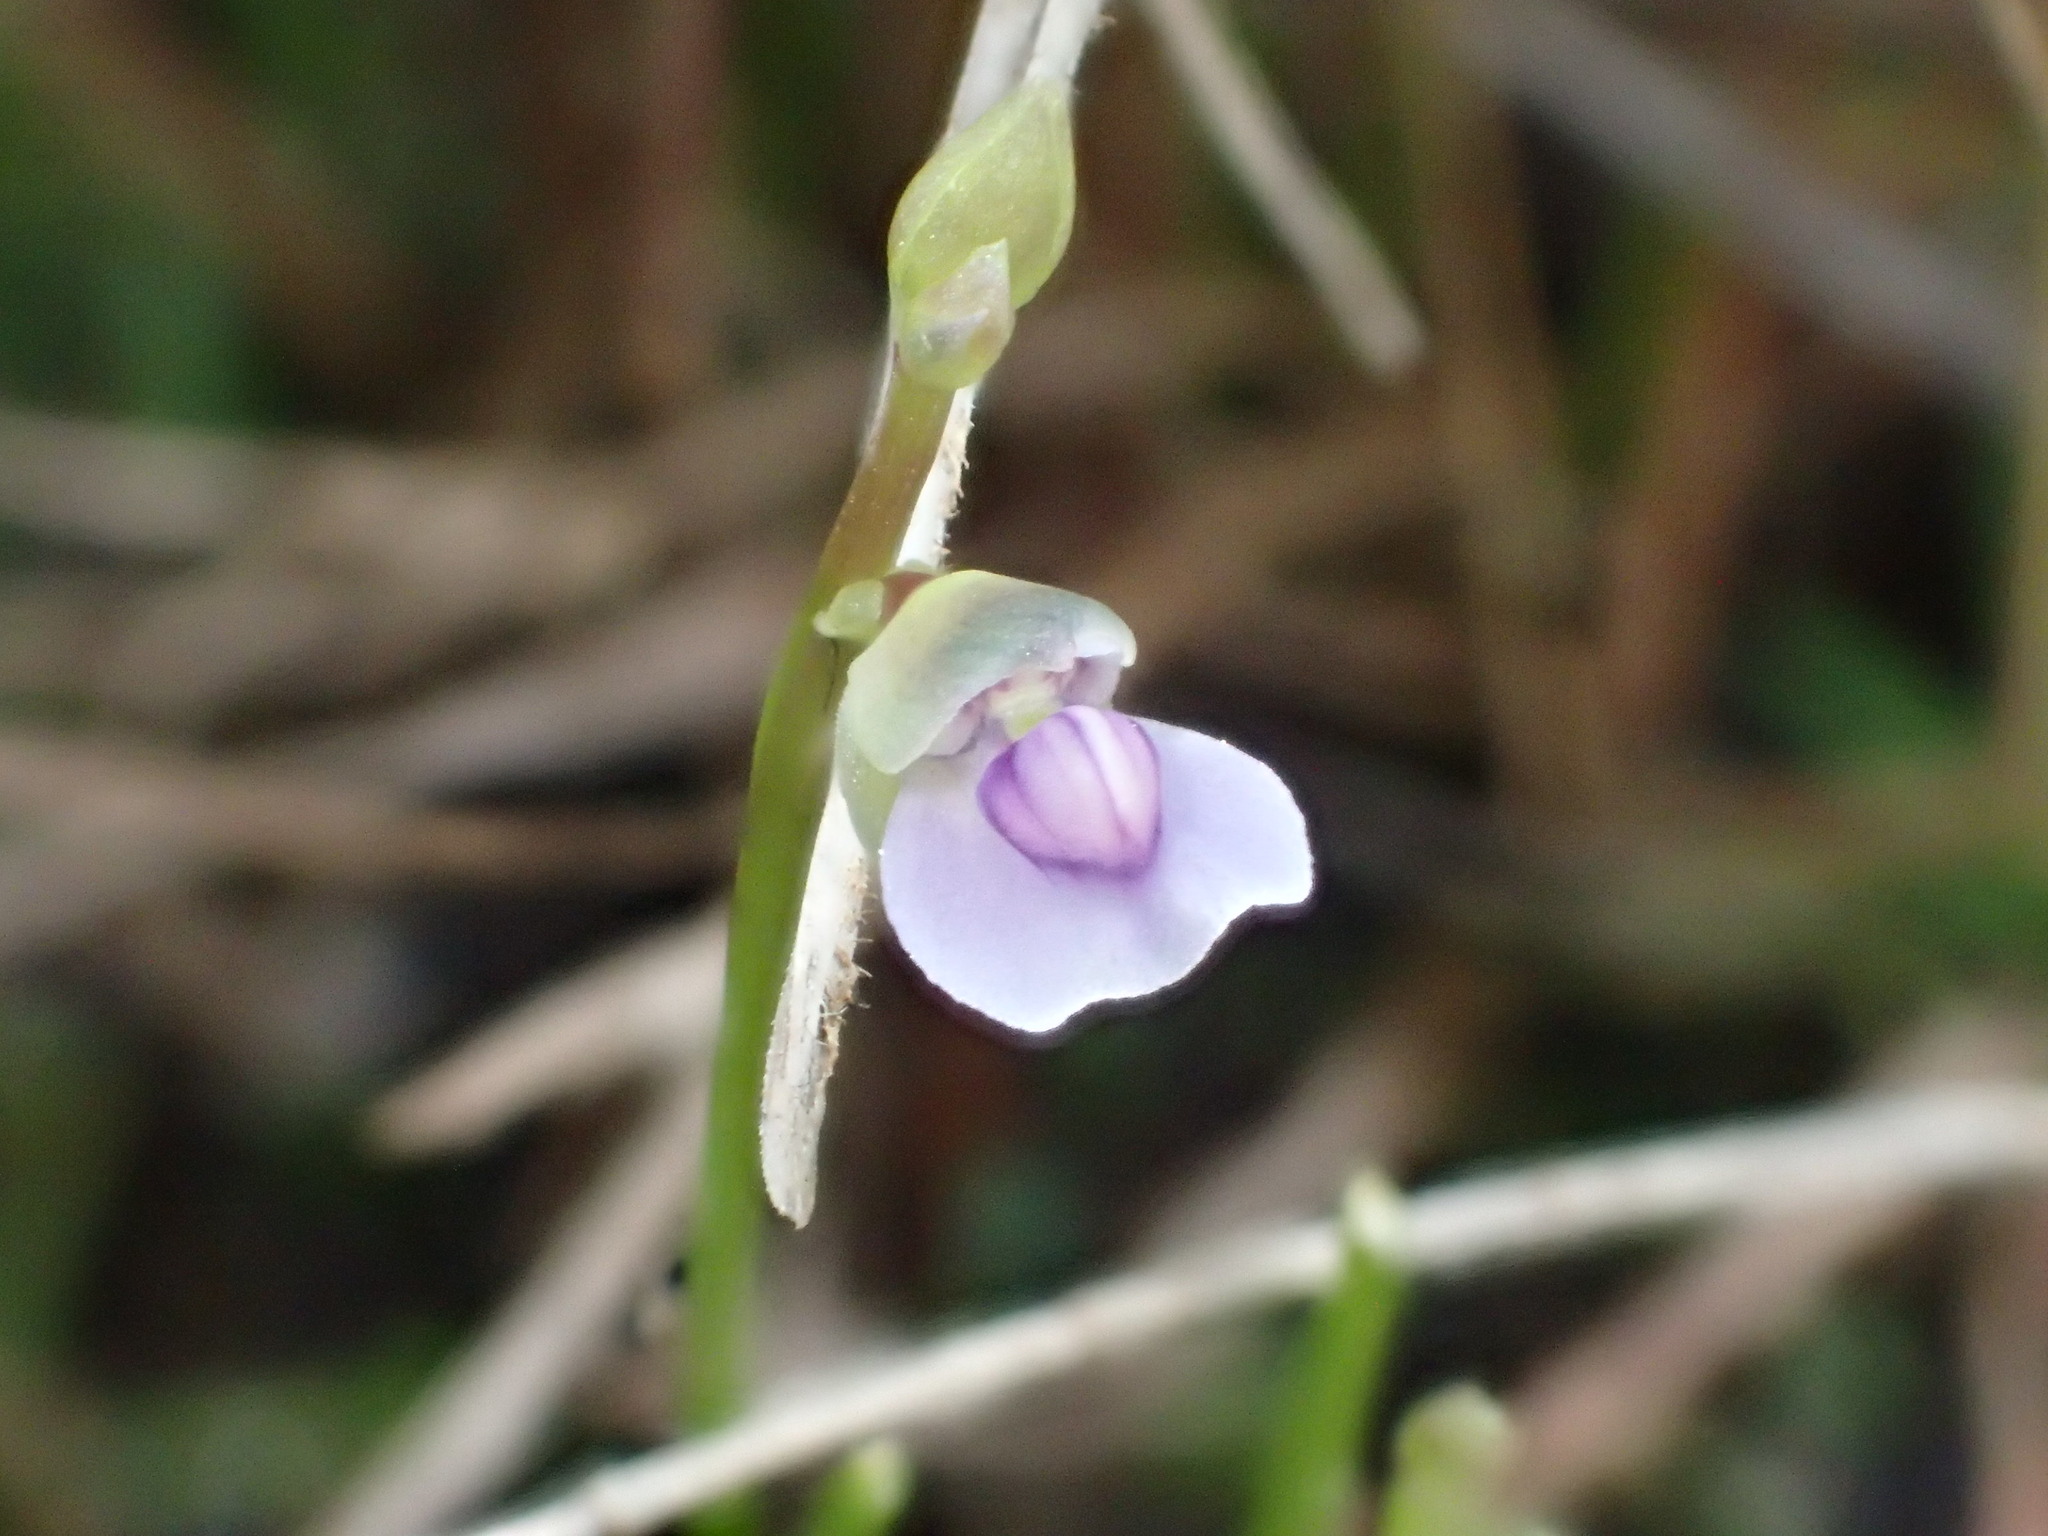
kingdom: Plantae
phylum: Tracheophyta
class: Magnoliopsida
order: Lamiales
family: Lentibulariaceae
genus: Utricularia
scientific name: Utricularia uliginosa
